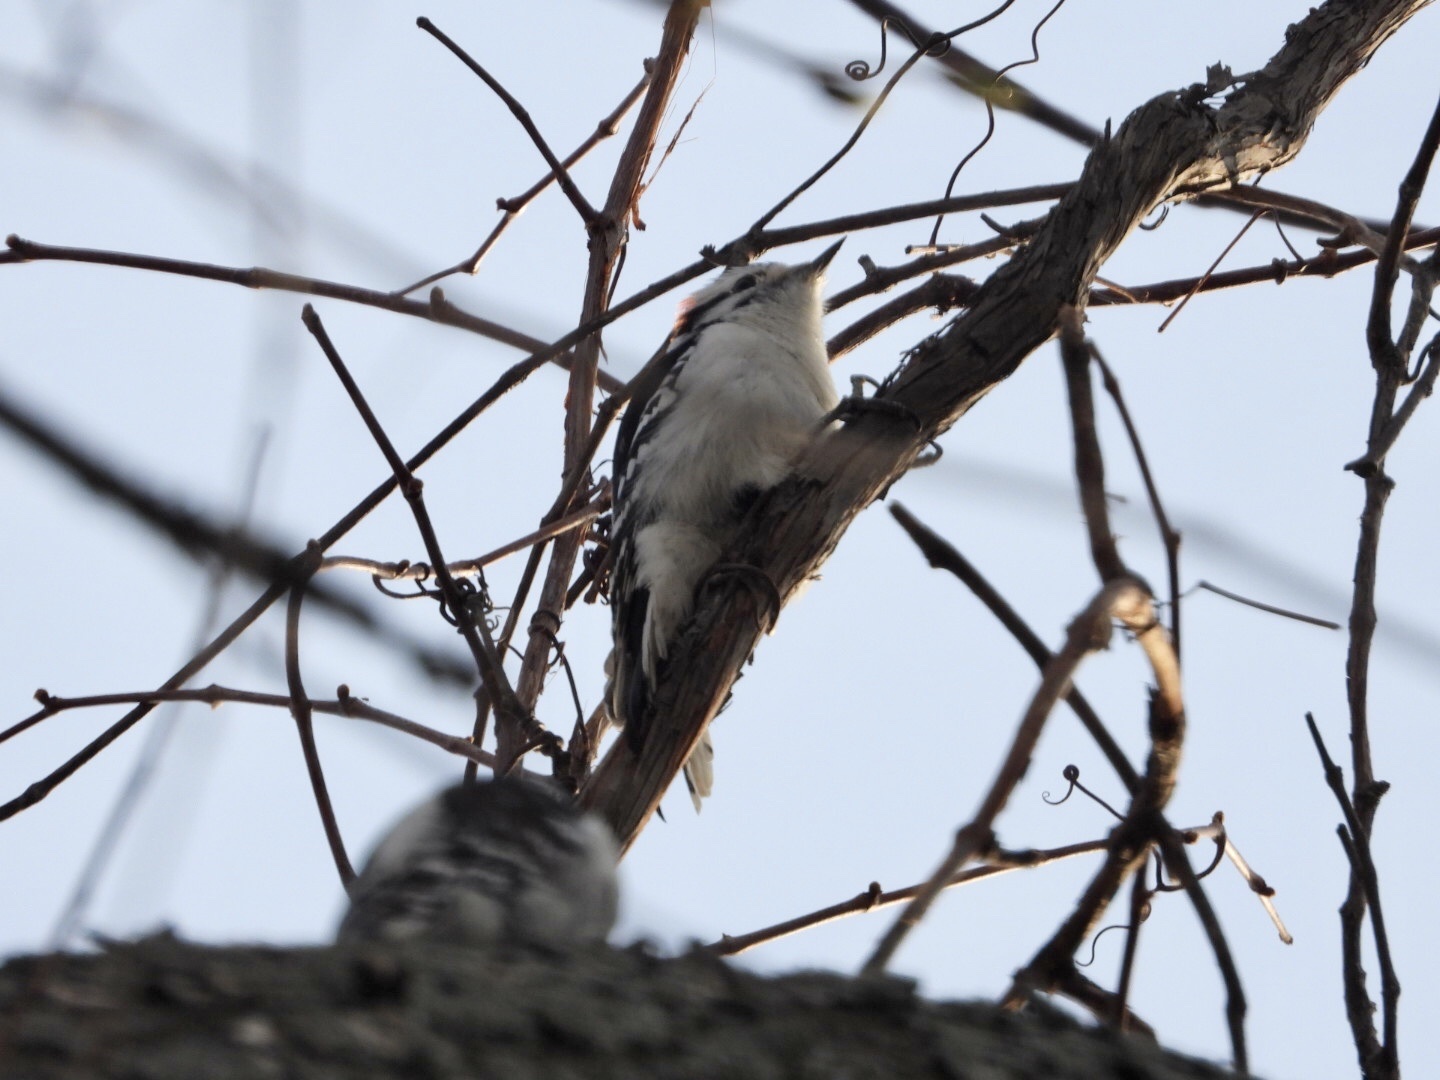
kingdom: Animalia
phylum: Chordata
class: Aves
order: Piciformes
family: Picidae
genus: Dryobates
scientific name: Dryobates pubescens
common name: Downy woodpecker
